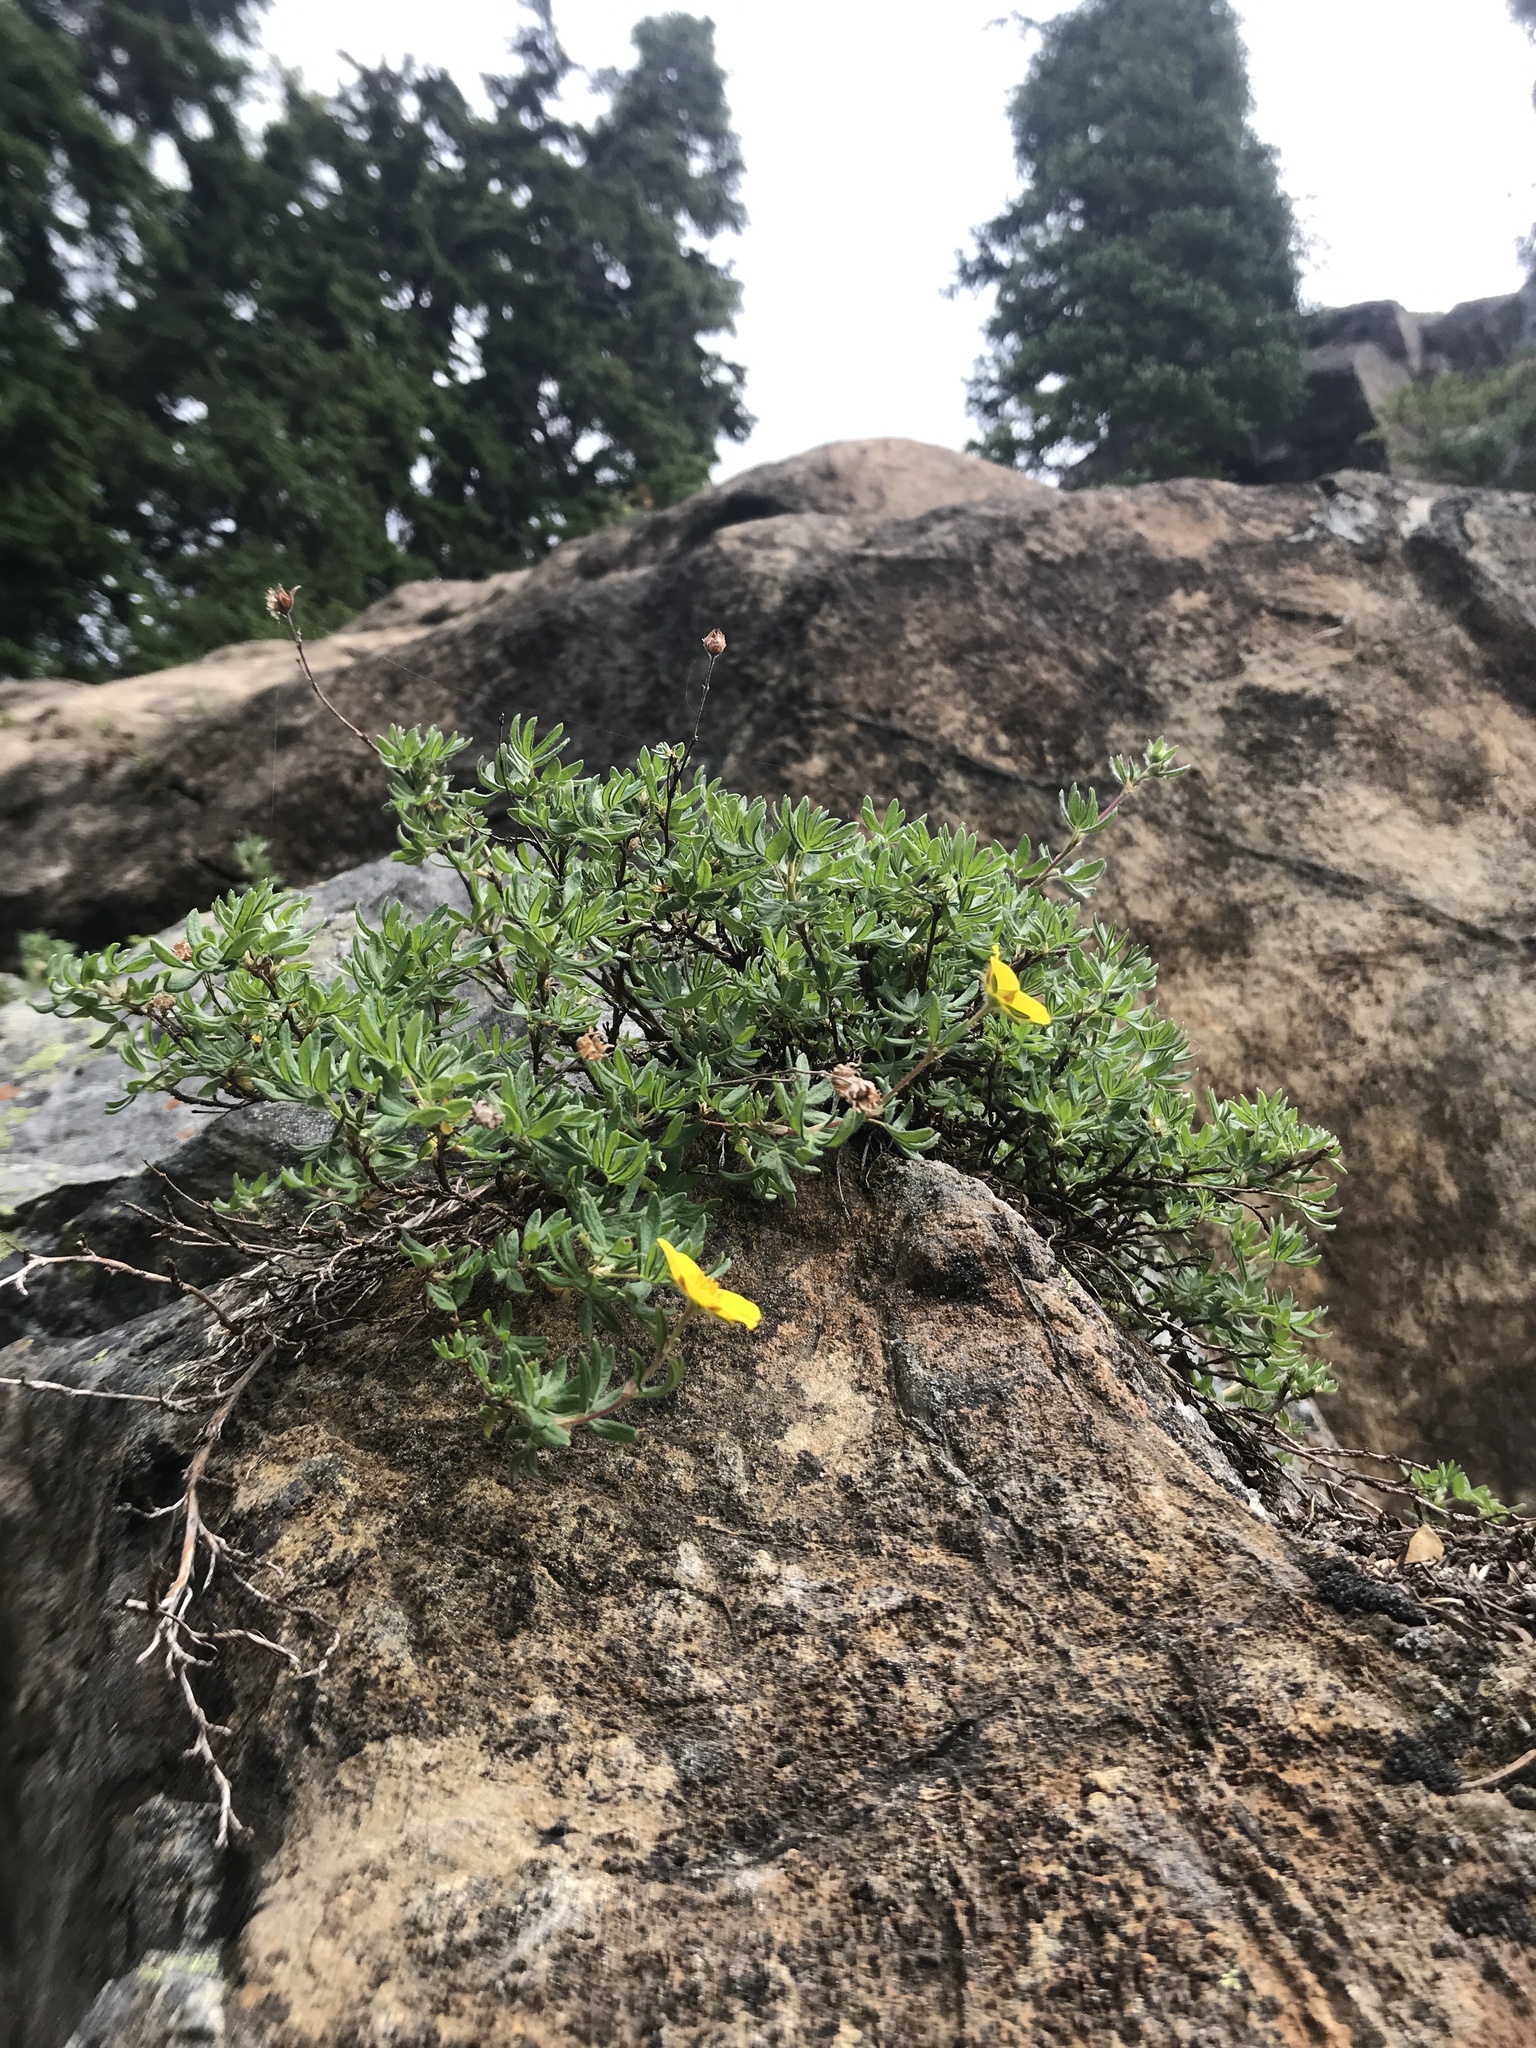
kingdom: Plantae
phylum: Tracheophyta
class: Magnoliopsida
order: Rosales
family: Rosaceae
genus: Dasiphora
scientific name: Dasiphora fruticosa
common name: Shrubby cinquefoil
